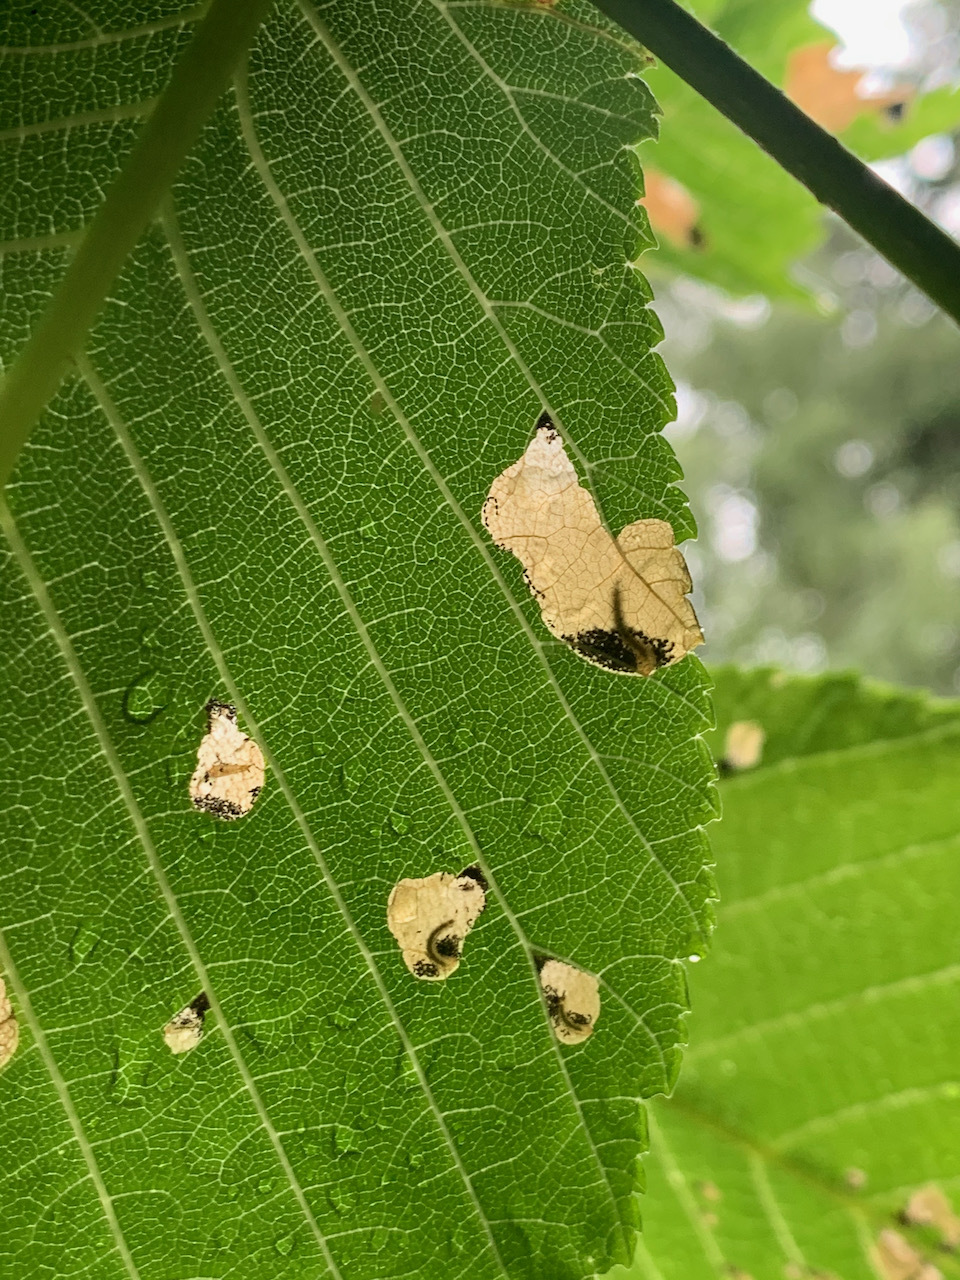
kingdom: Animalia
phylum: Arthropoda
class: Insecta
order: Hymenoptera
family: Tenthredinidae
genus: Fenusa
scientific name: Fenusa ulmi
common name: Elm leafminer
